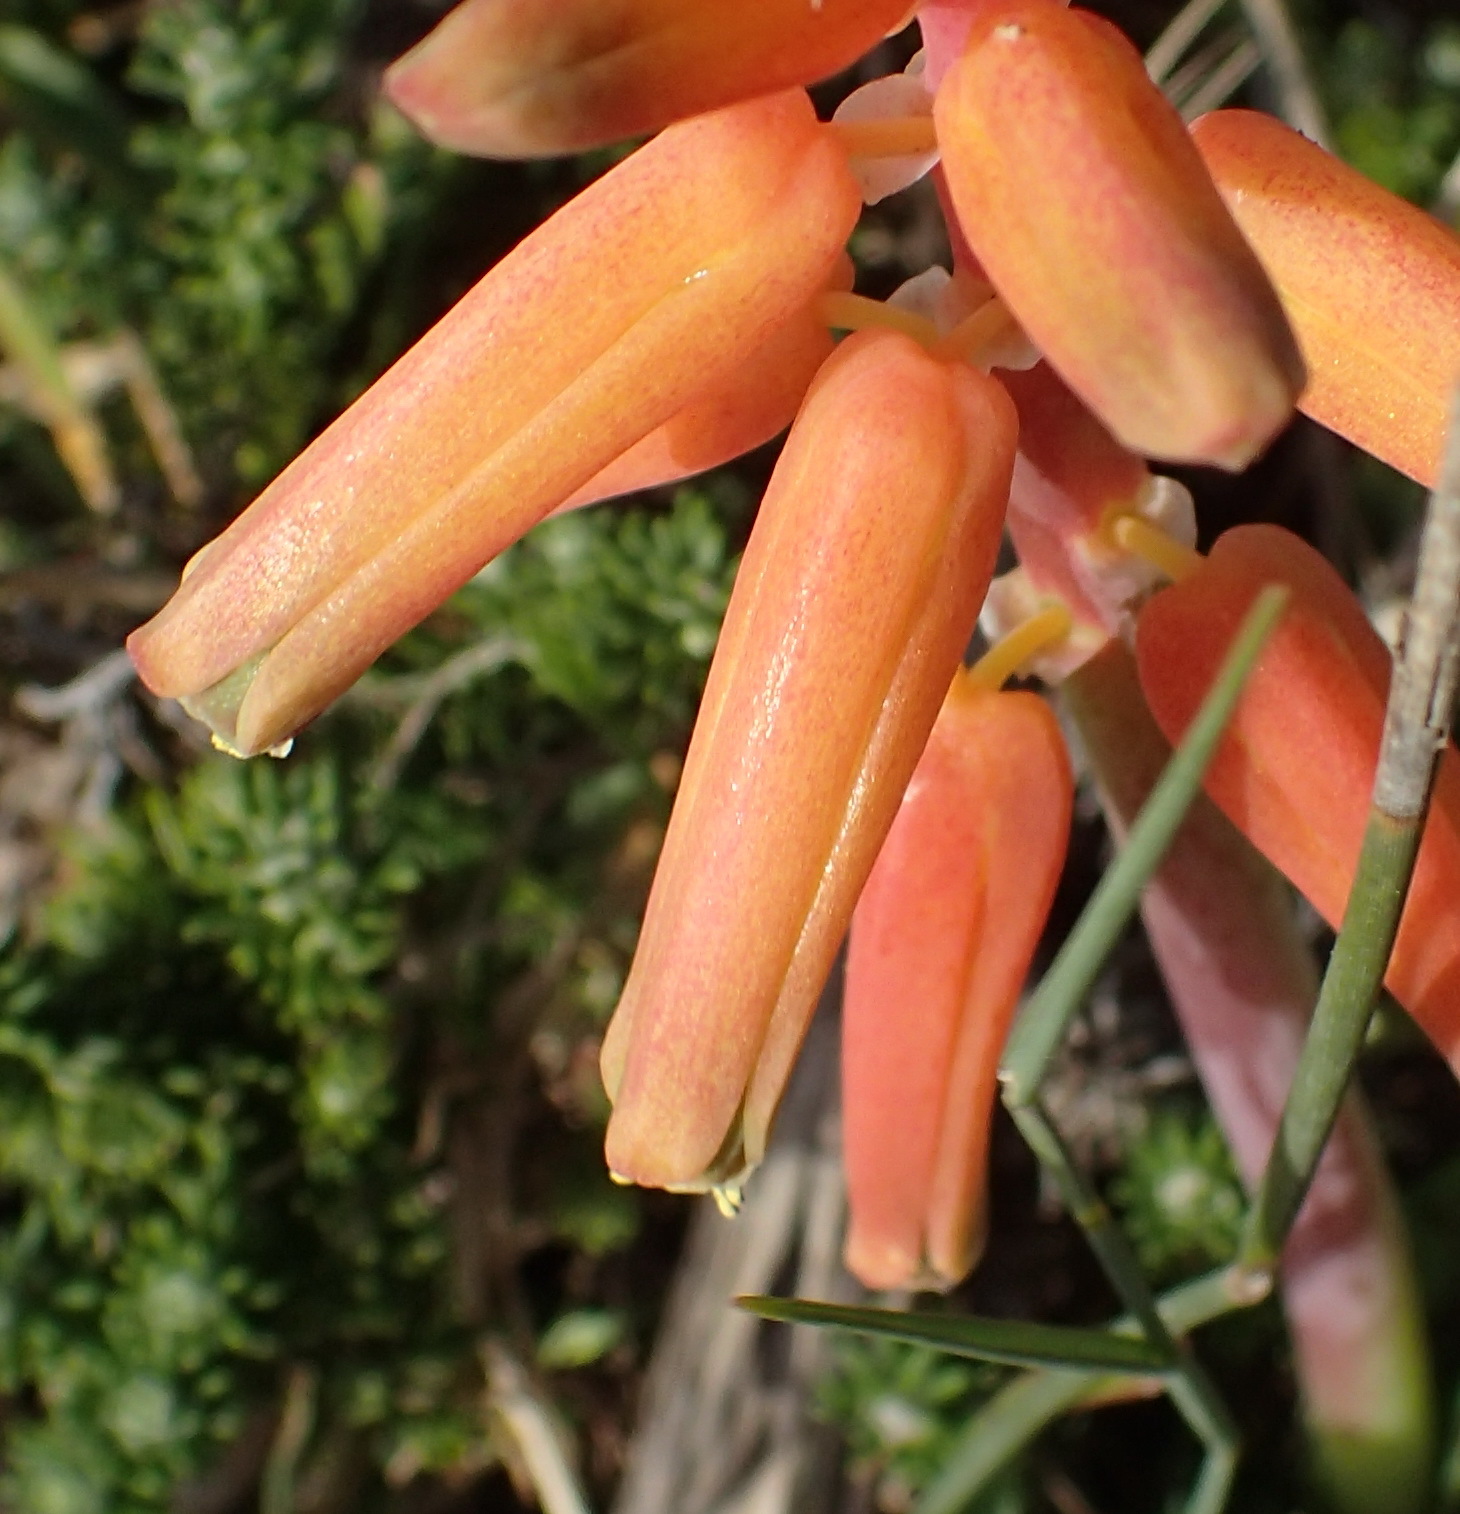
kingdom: Plantae
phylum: Tracheophyta
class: Liliopsida
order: Asparagales
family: Asparagaceae
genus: Lachenalia
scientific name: Lachenalia bulbifera
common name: Red lachenalia
